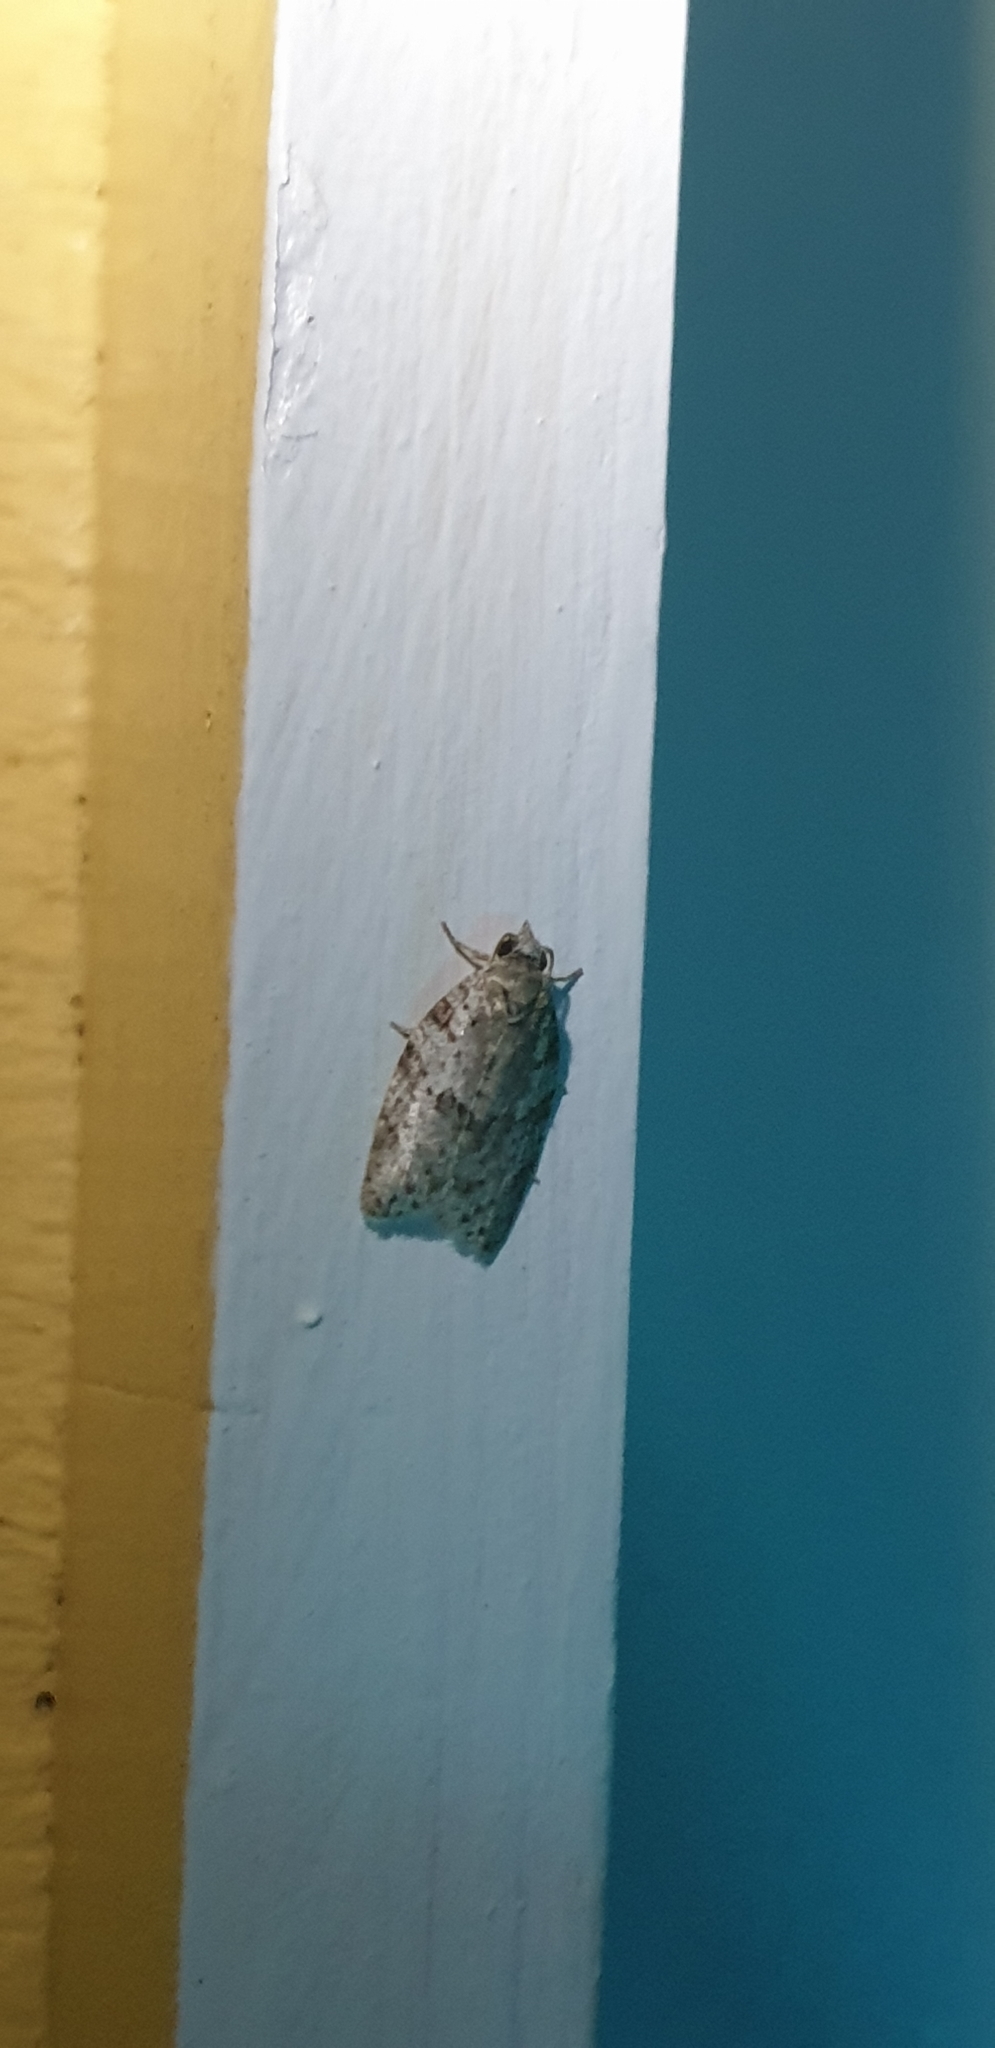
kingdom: Animalia
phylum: Arthropoda
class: Insecta
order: Lepidoptera
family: Tortricidae
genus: Isotenes
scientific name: Isotenes miserana
